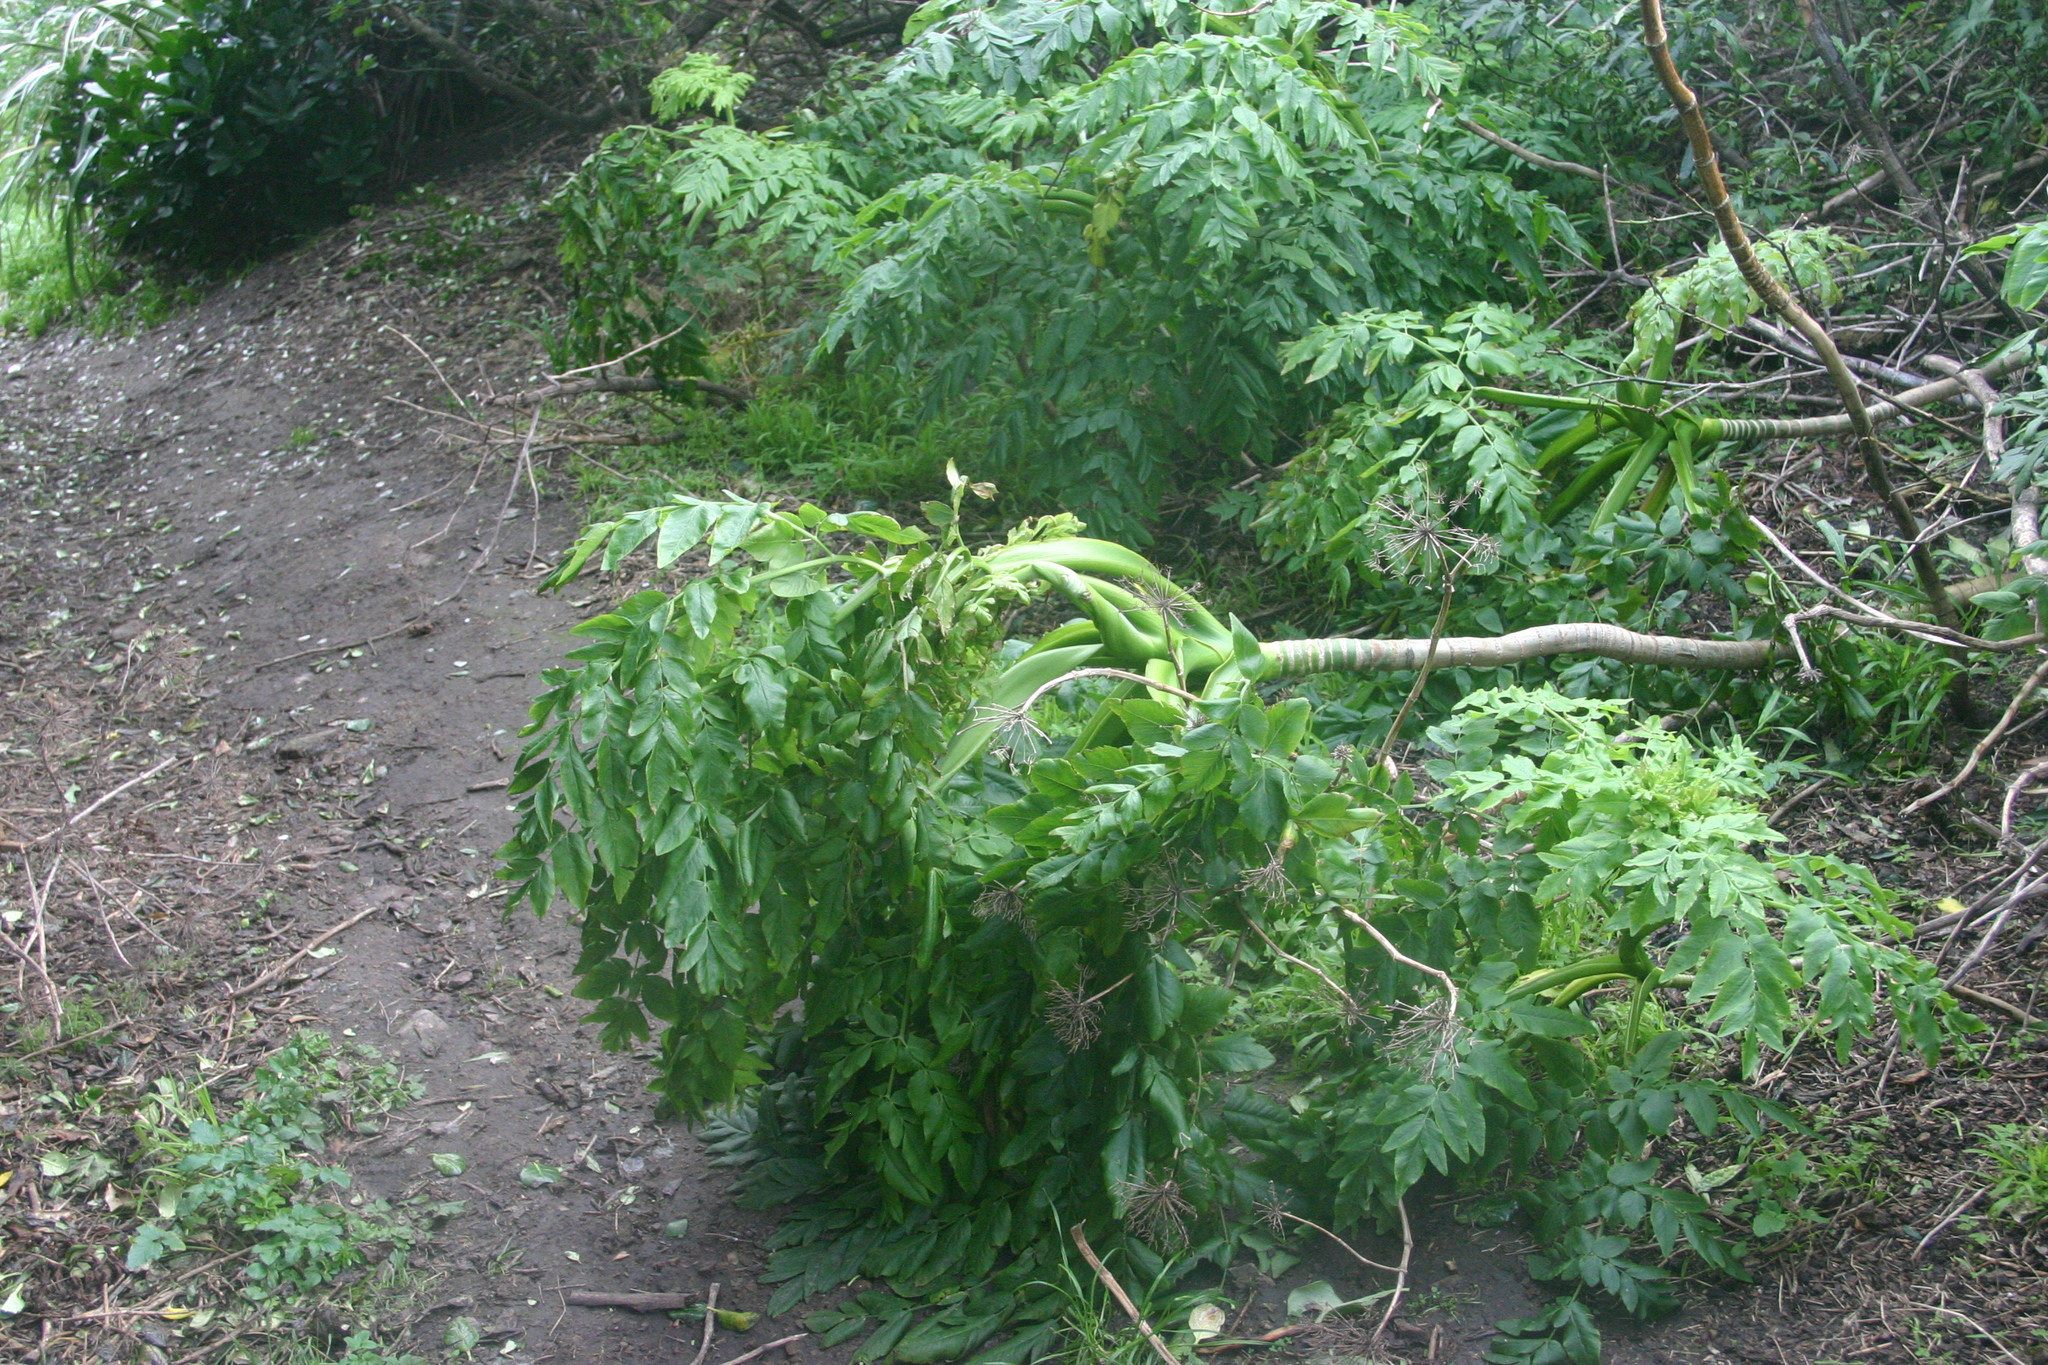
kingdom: Plantae
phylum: Tracheophyta
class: Magnoliopsida
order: Apiales
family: Apiaceae
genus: Daucus
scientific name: Daucus decipiens
